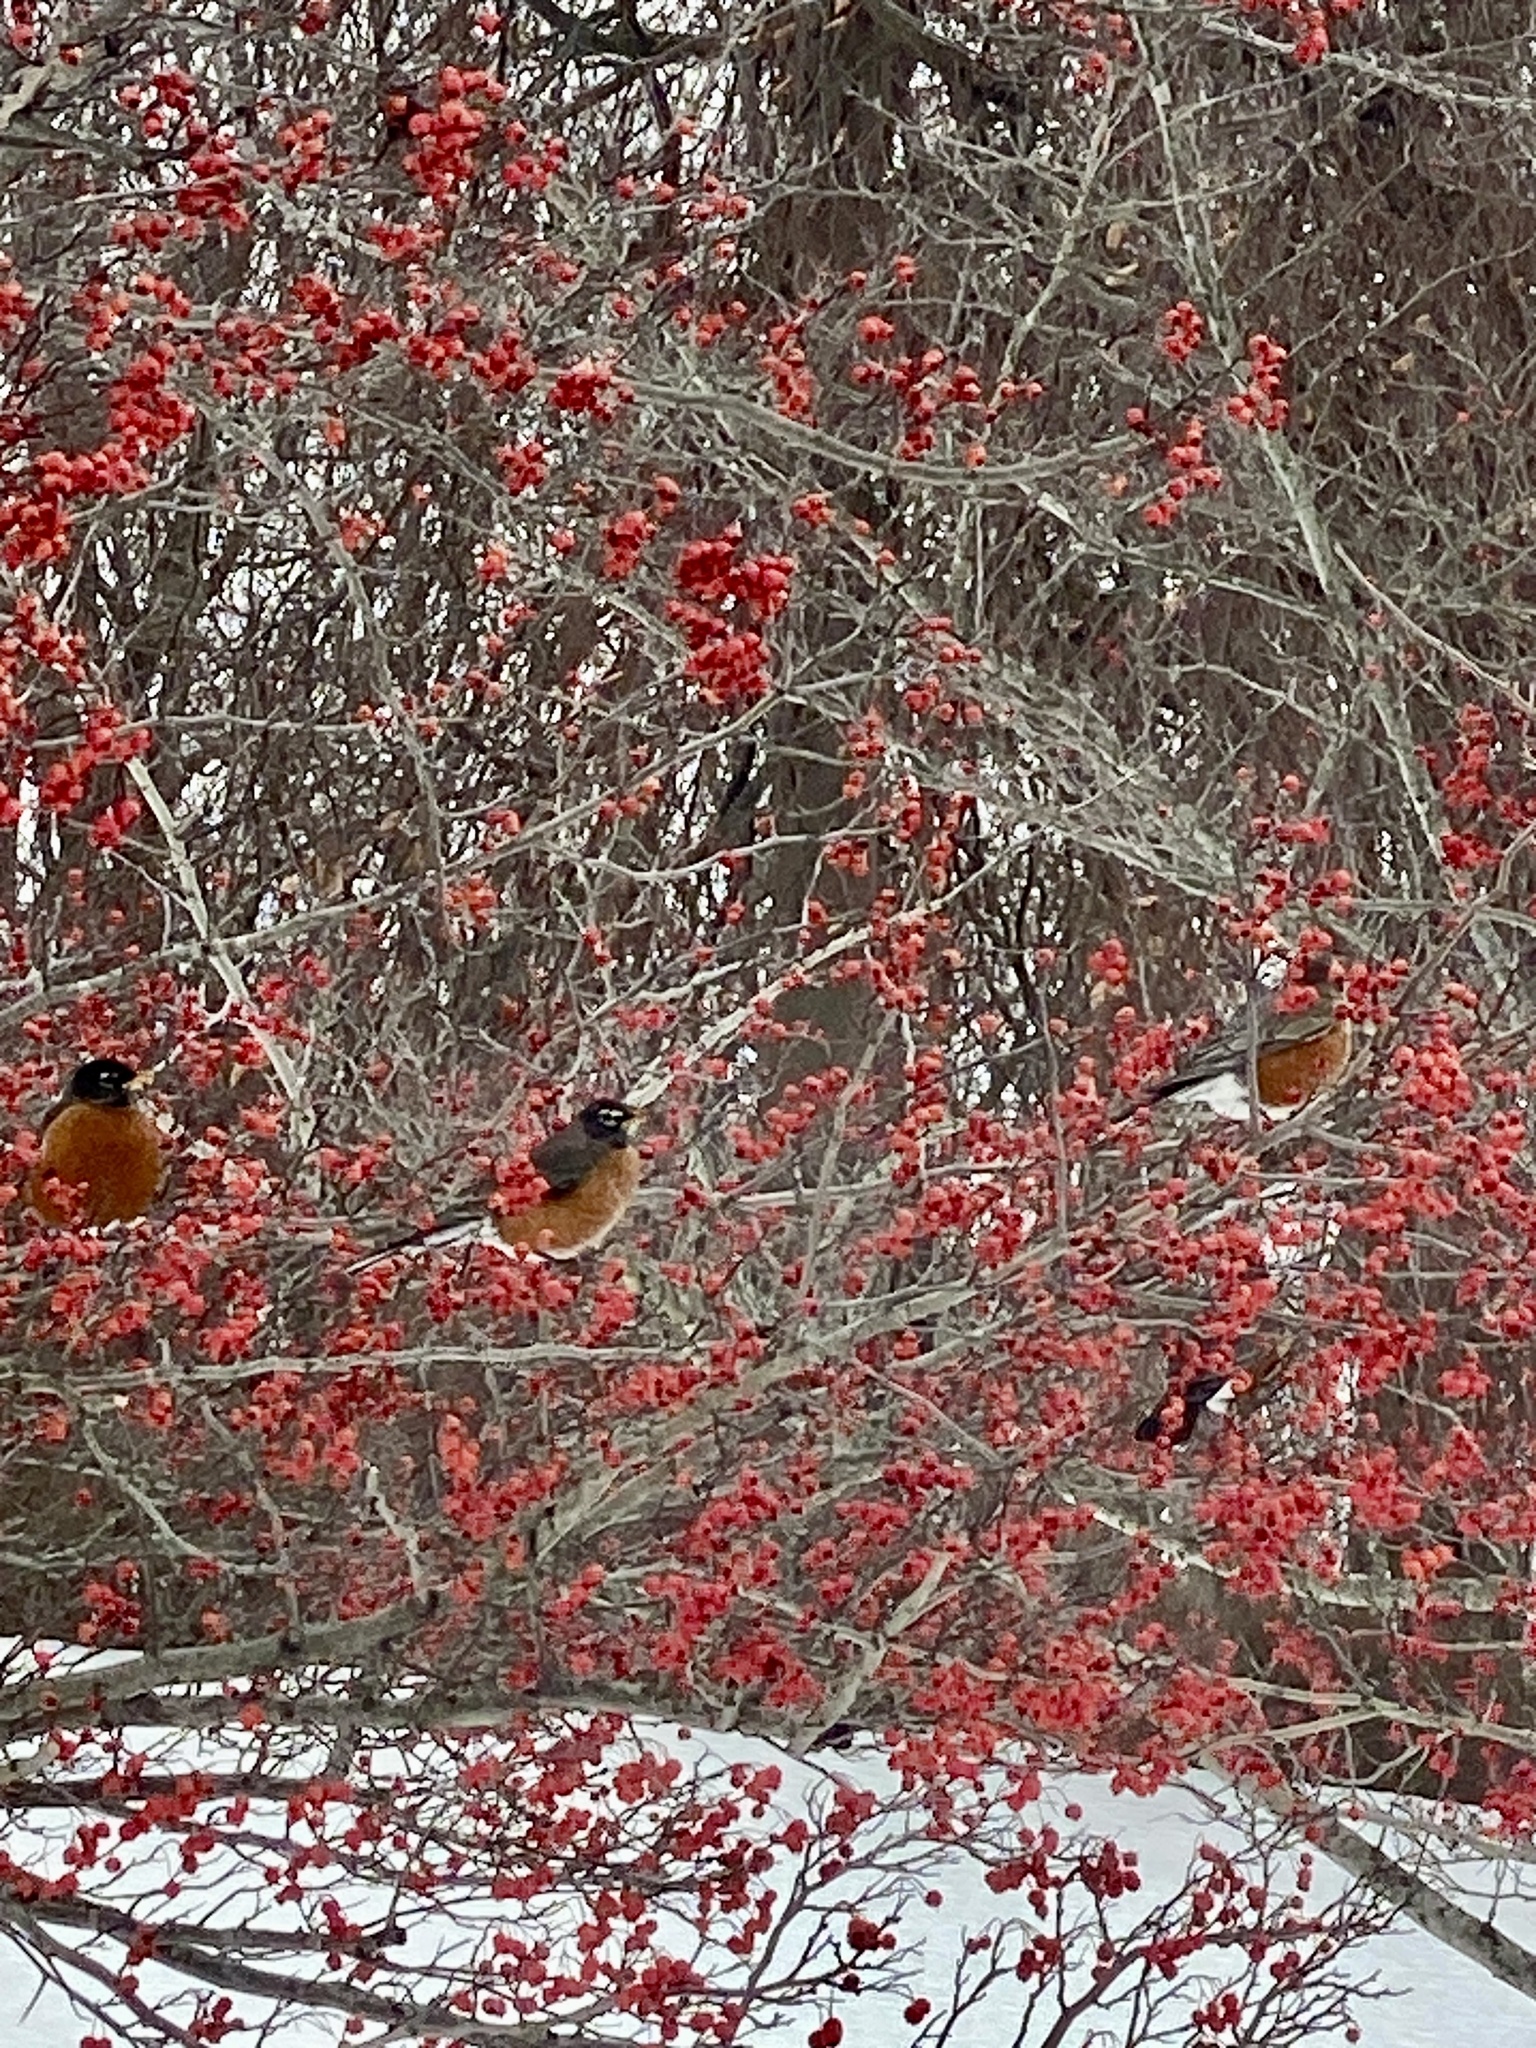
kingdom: Animalia
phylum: Chordata
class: Aves
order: Passeriformes
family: Turdidae
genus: Turdus
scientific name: Turdus migratorius
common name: American robin
